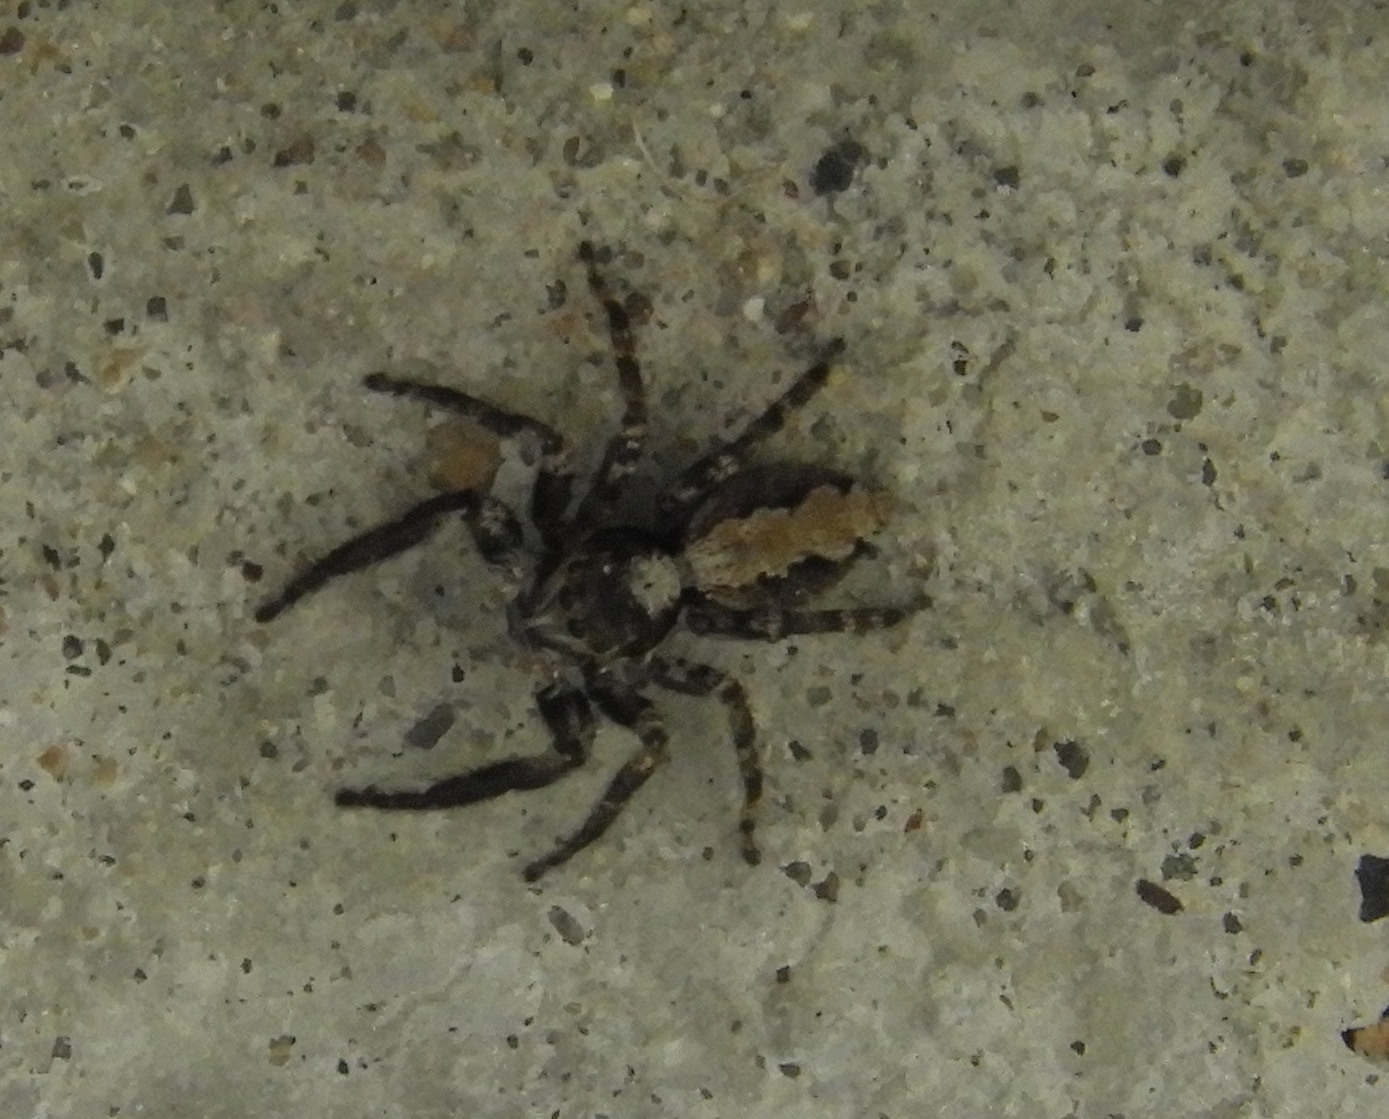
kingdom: Animalia
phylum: Arthropoda
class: Arachnida
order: Araneae
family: Salticidae
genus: Balmaceda
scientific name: Balmaceda
